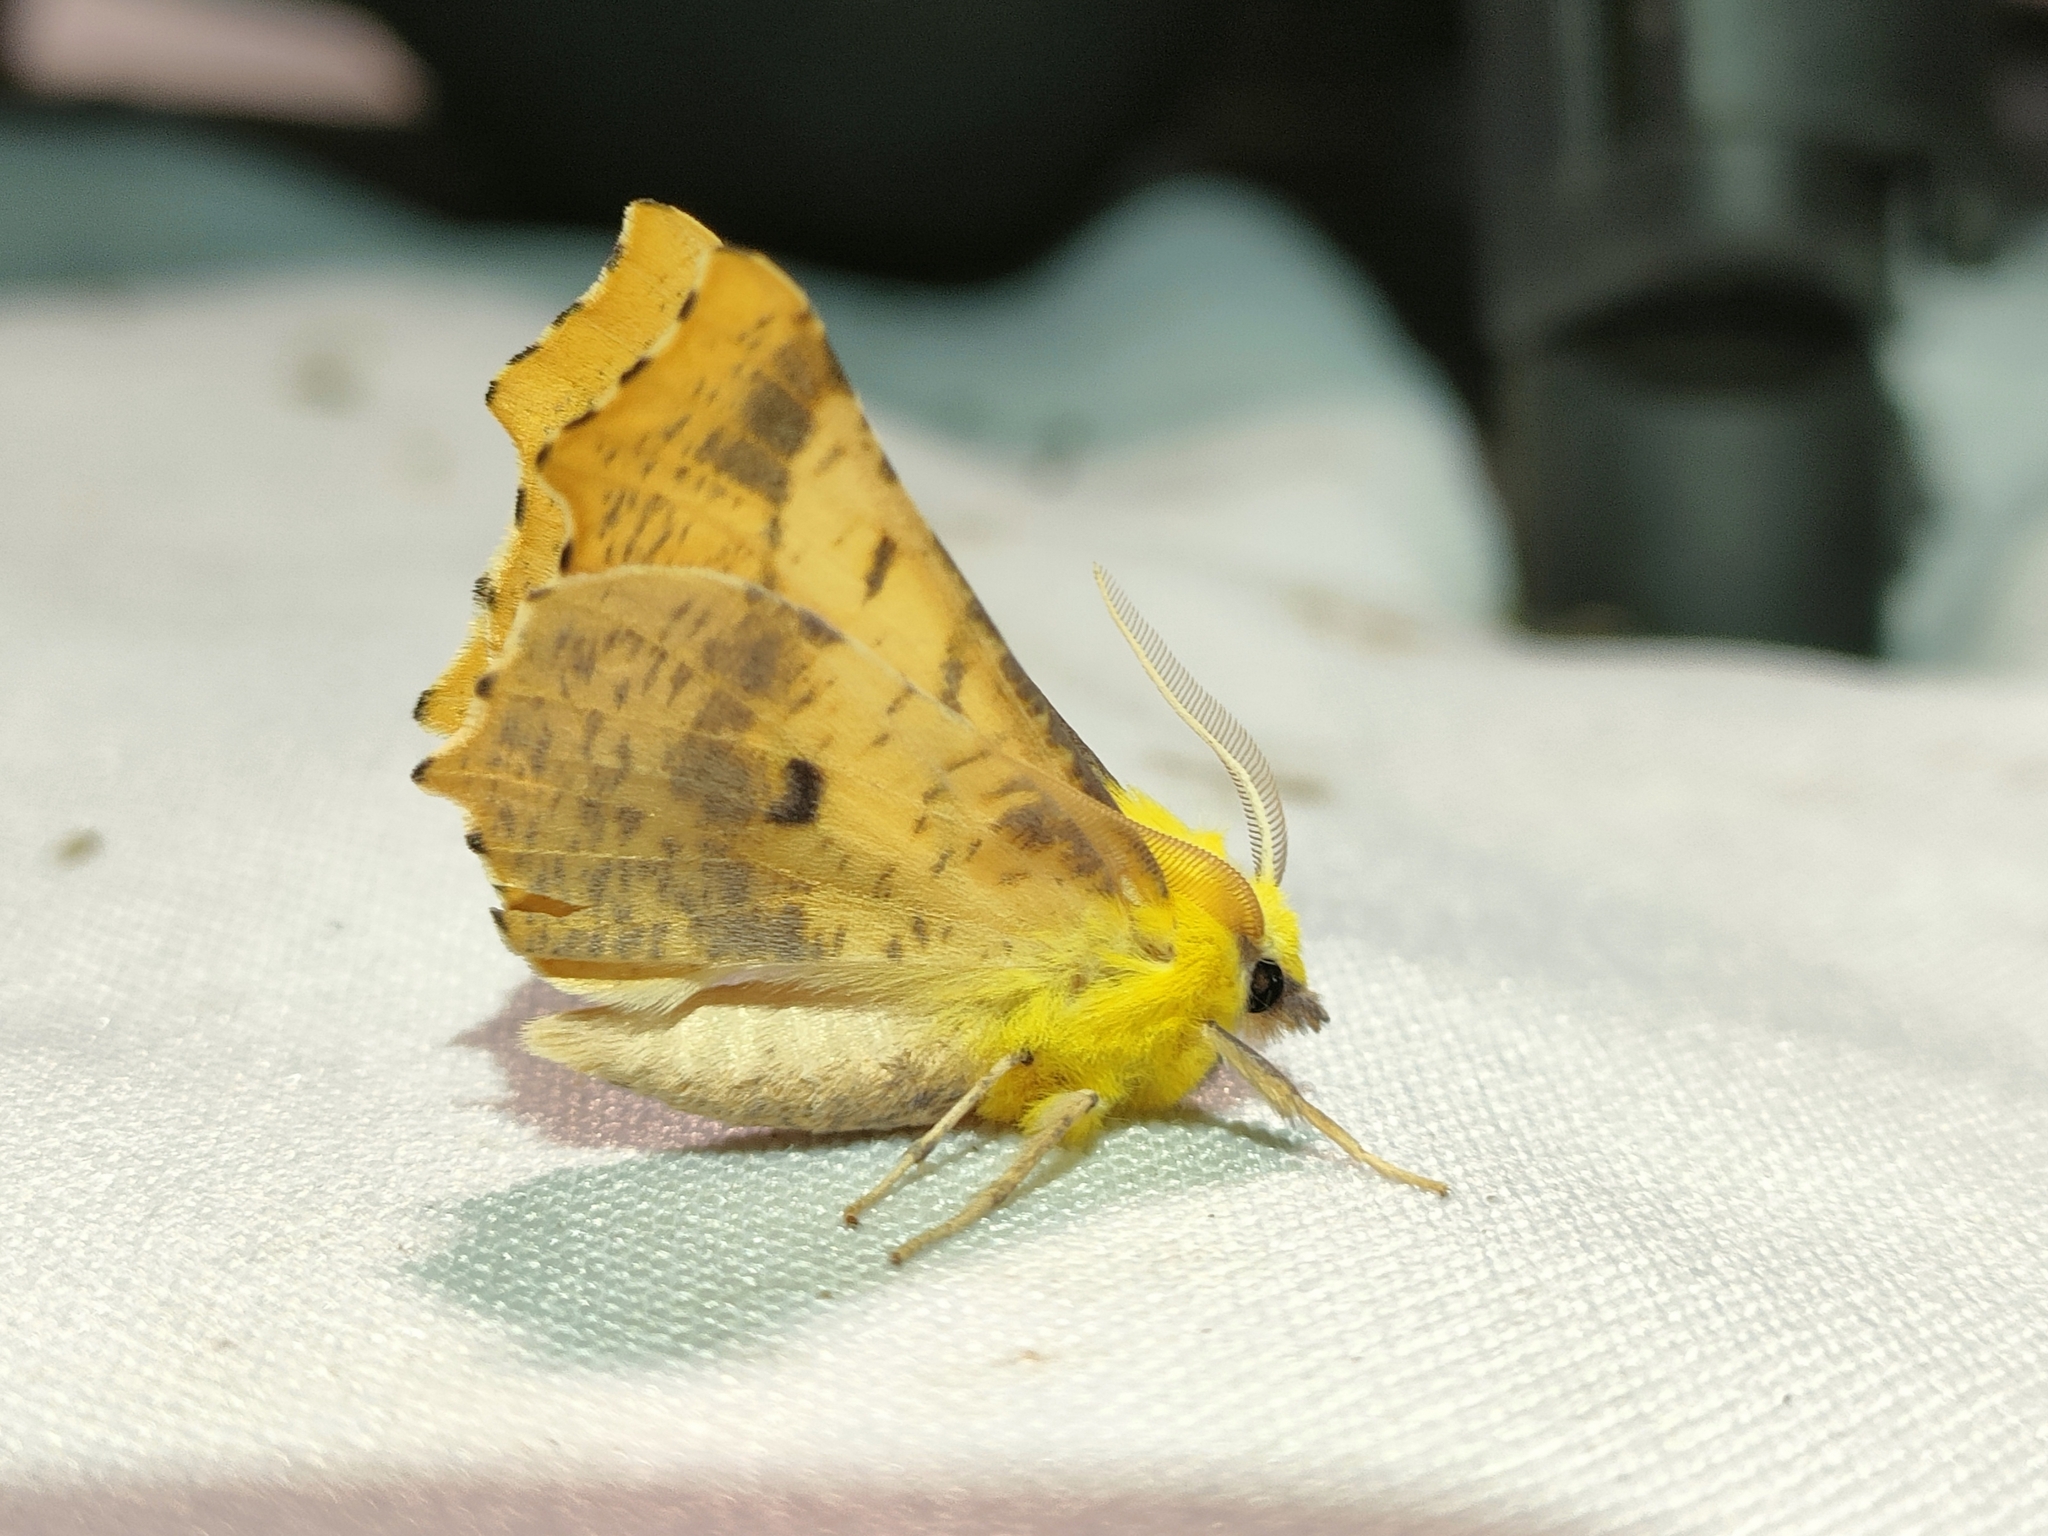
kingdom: Animalia
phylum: Arthropoda
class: Insecta
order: Lepidoptera
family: Geometridae
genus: Ennomos
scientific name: Ennomos alniaria
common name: Canary-shouldered thorn
